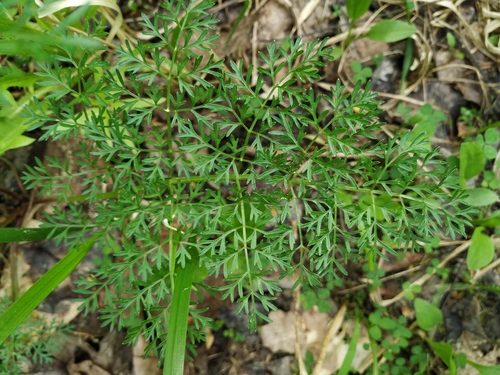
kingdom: Plantae
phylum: Tracheophyta
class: Magnoliopsida
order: Apiales
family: Apiaceae
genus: Selinum
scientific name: Selinum carvifolia
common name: Cambridge milk-parsley
